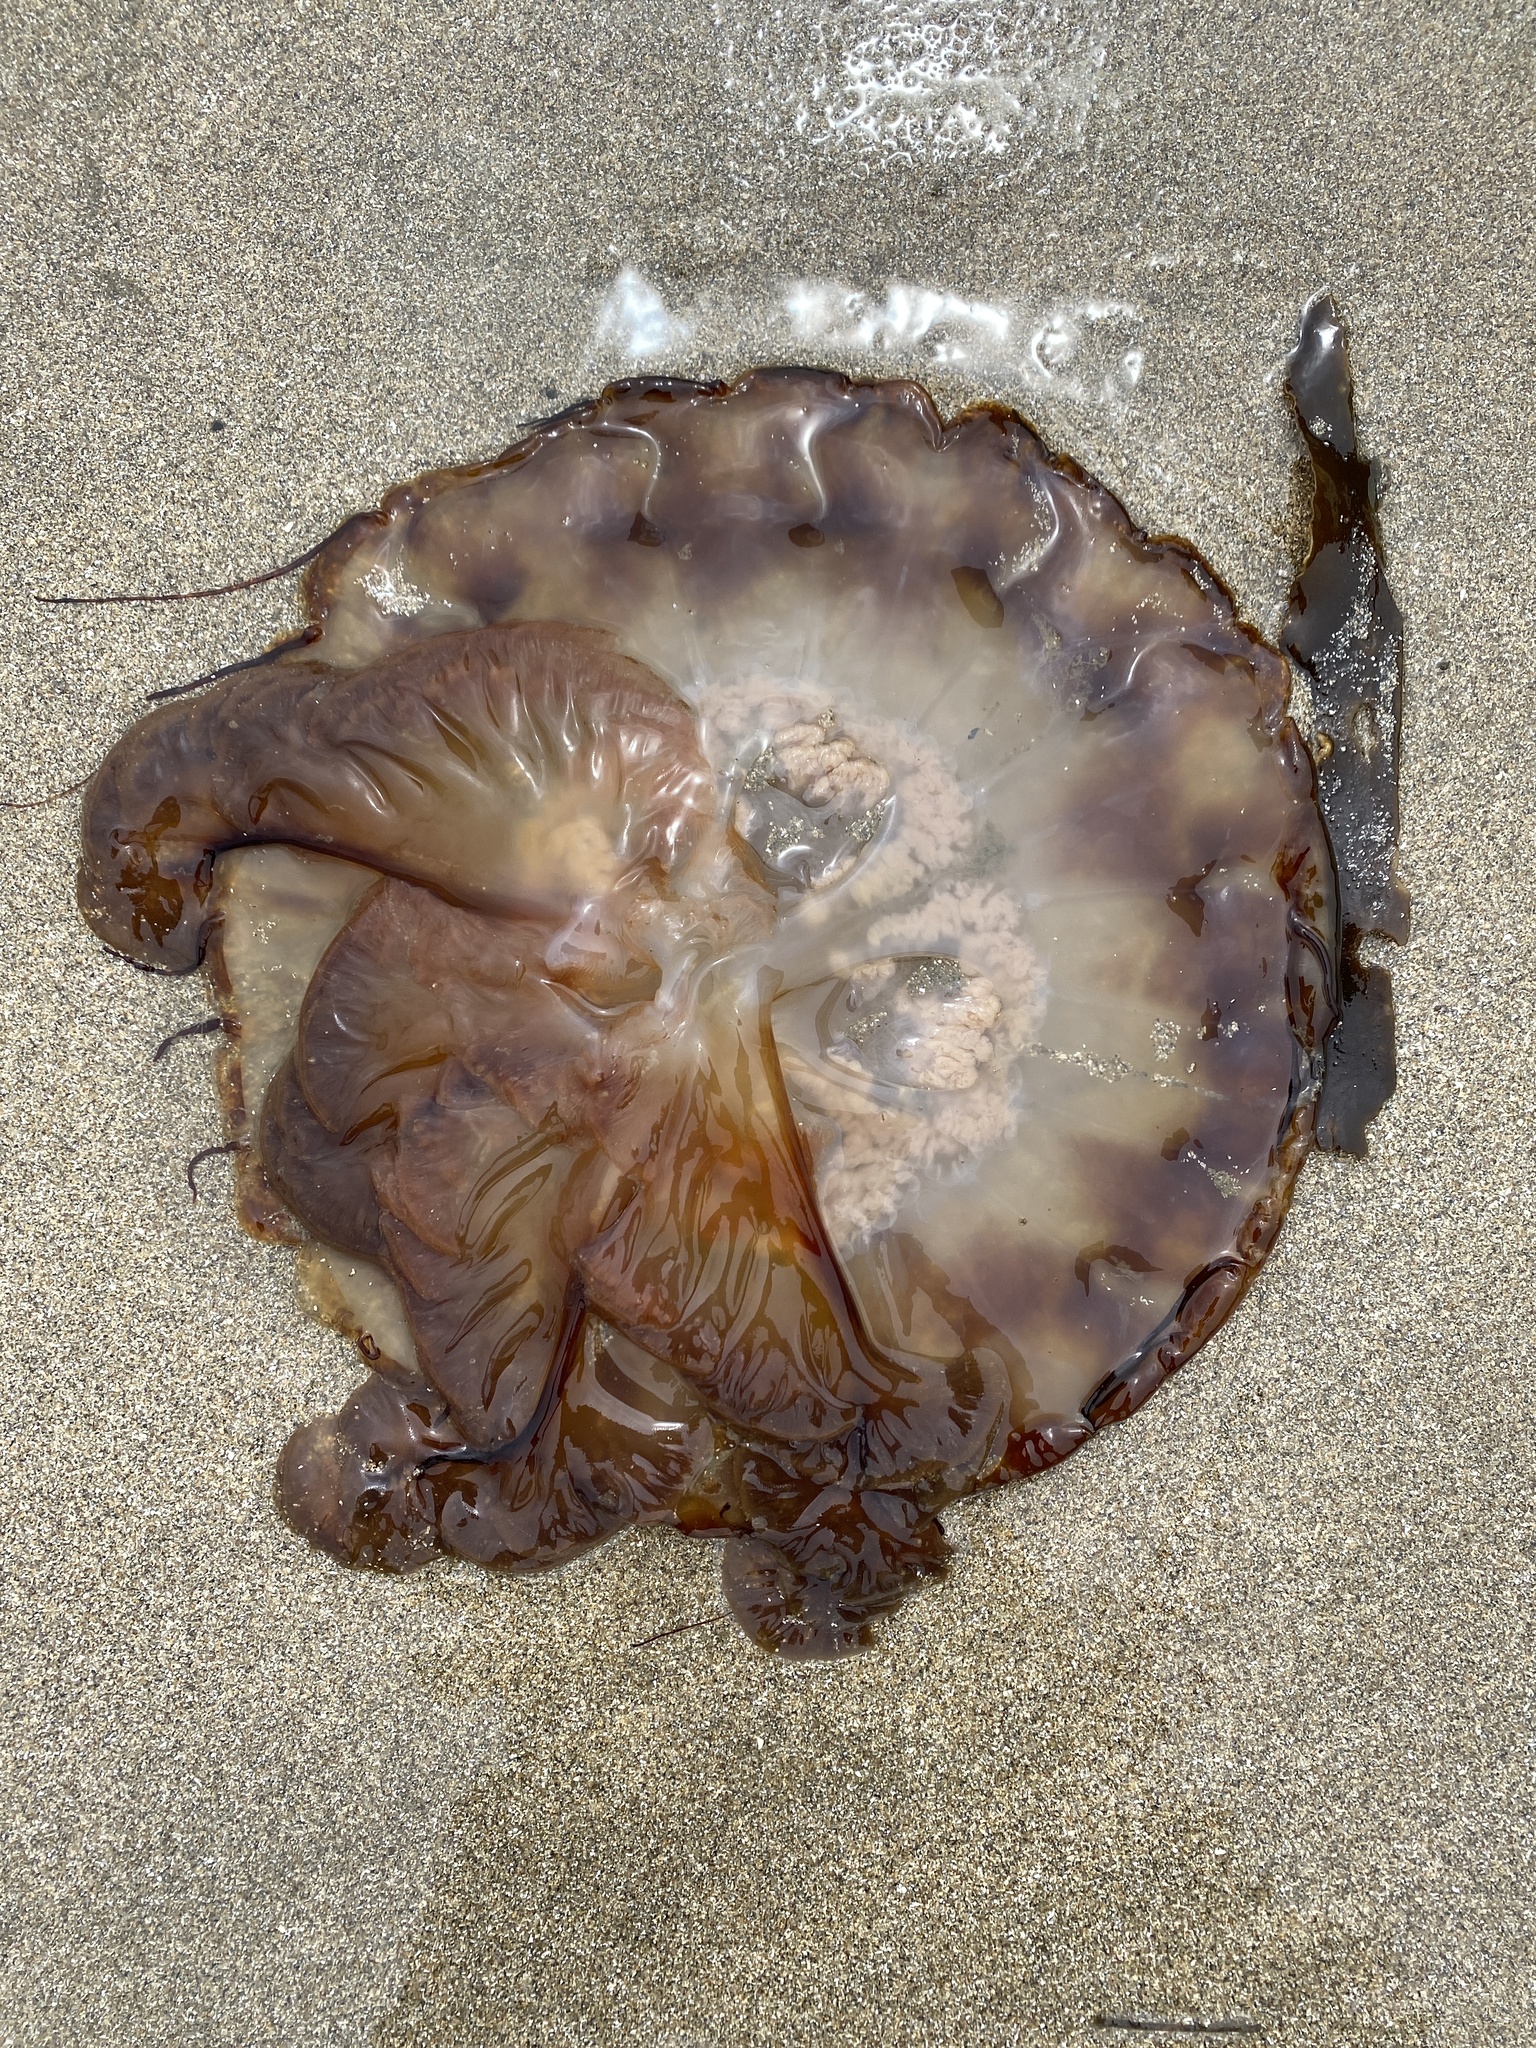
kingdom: Animalia
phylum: Cnidaria
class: Scyphozoa
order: Semaeostomeae
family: Pelagiidae
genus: Chrysaora
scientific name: Chrysaora fuscescens
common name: Sea nettle
